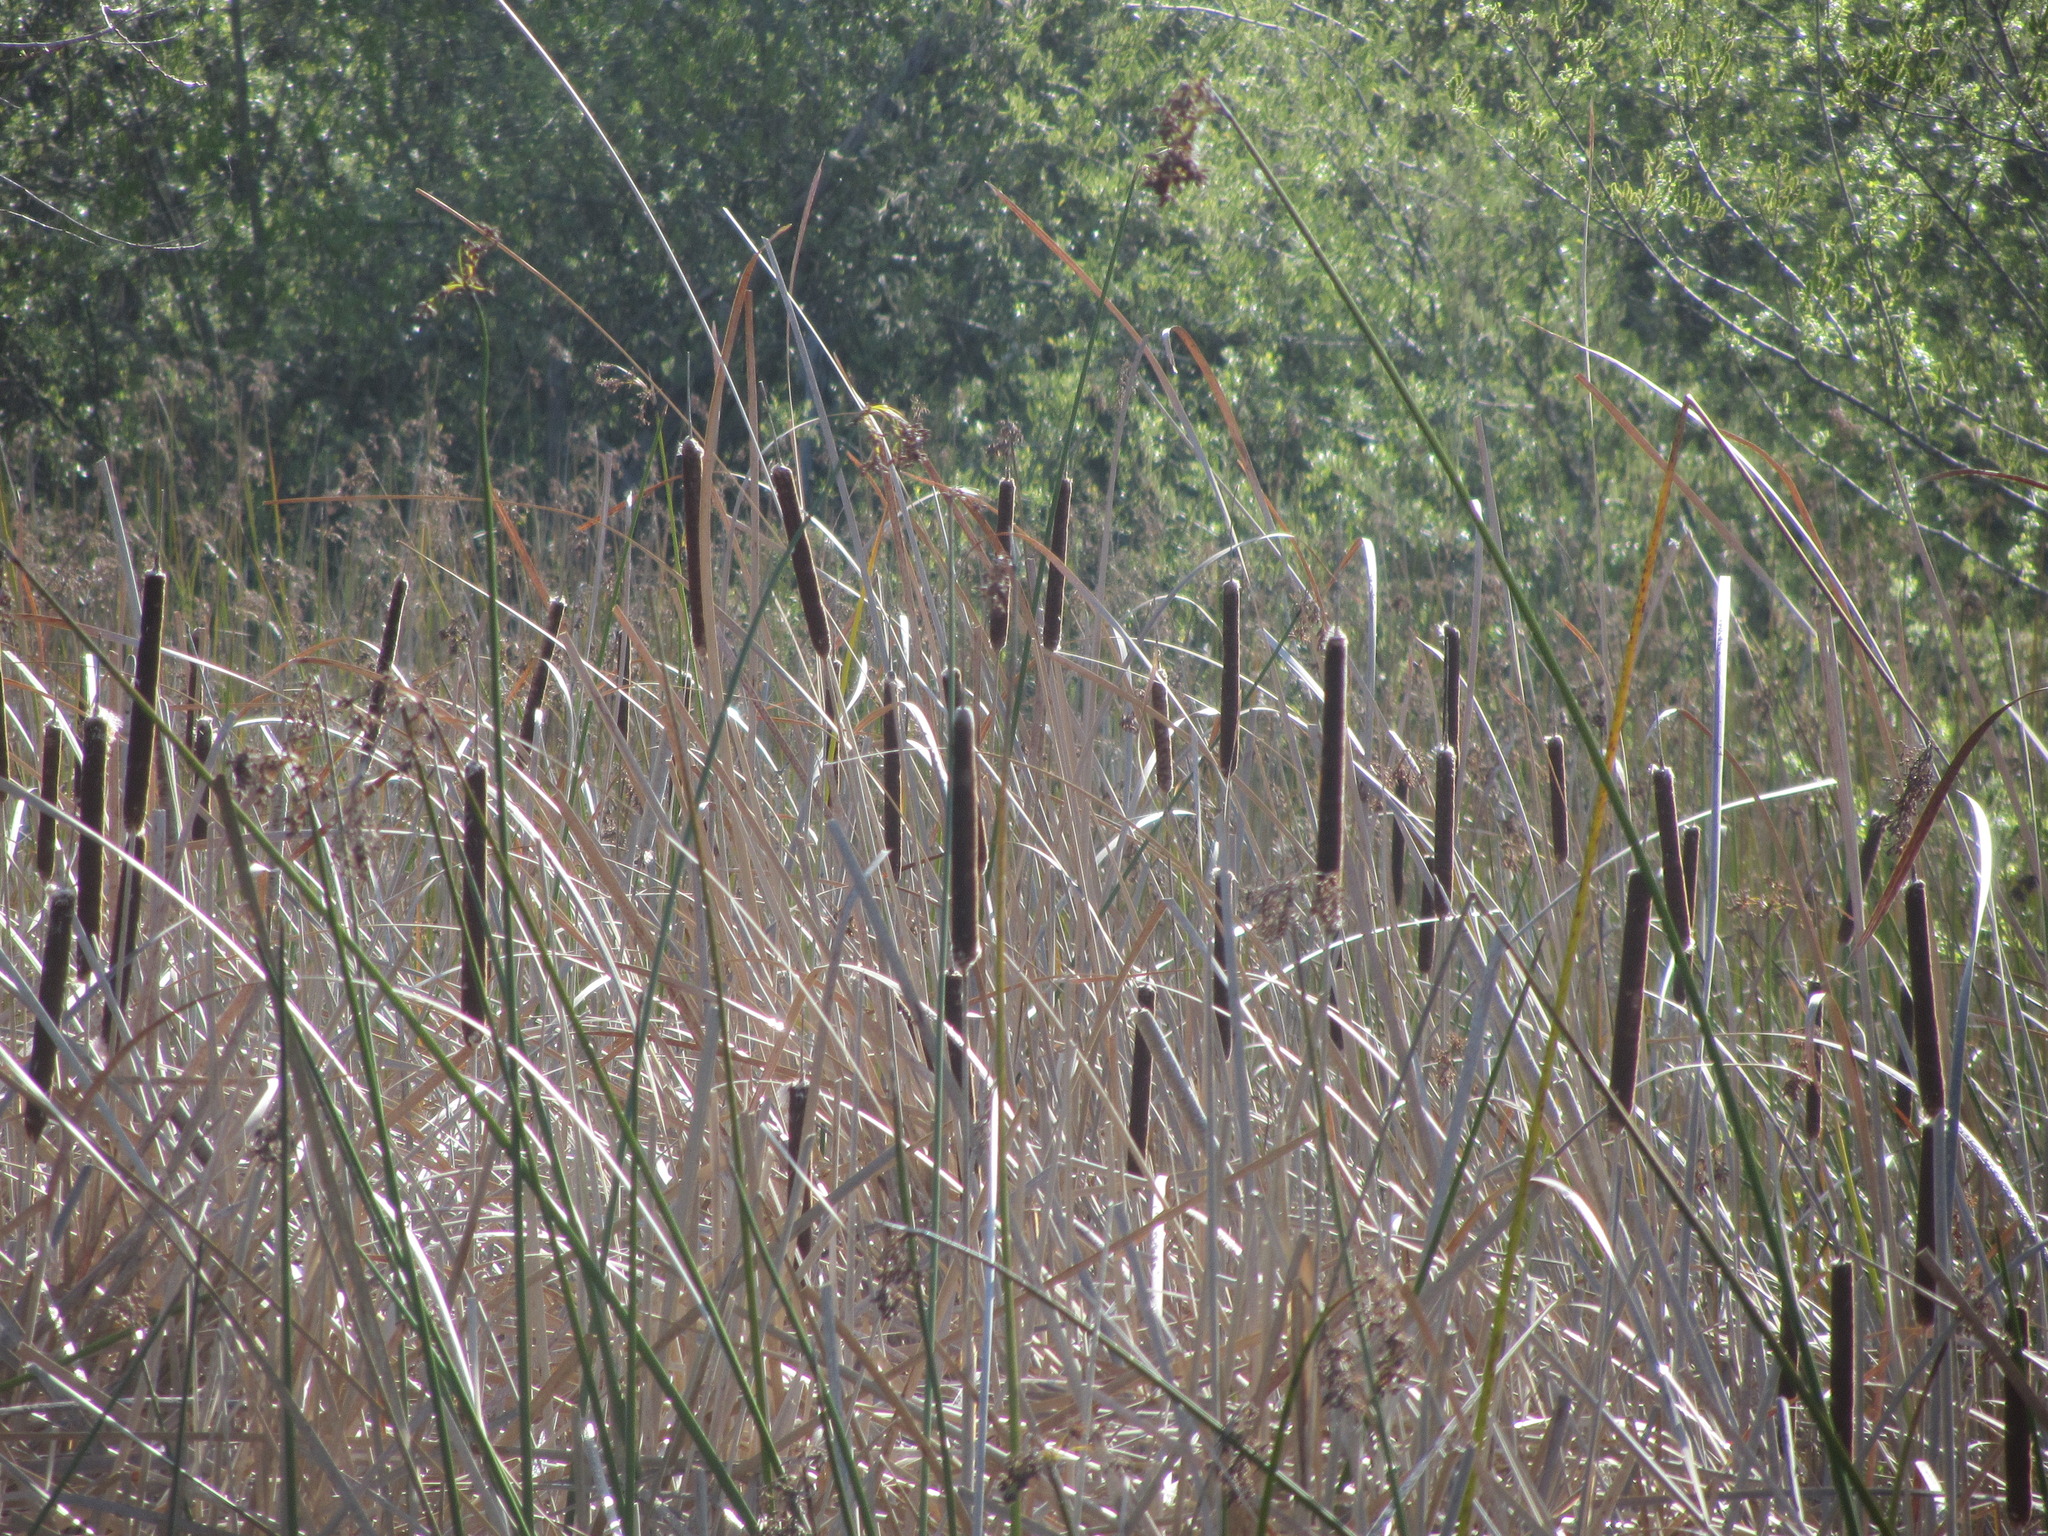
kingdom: Plantae
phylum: Tracheophyta
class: Liliopsida
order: Poales
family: Typhaceae
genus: Typha
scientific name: Typha angustifolia
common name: Lesser bulrush
